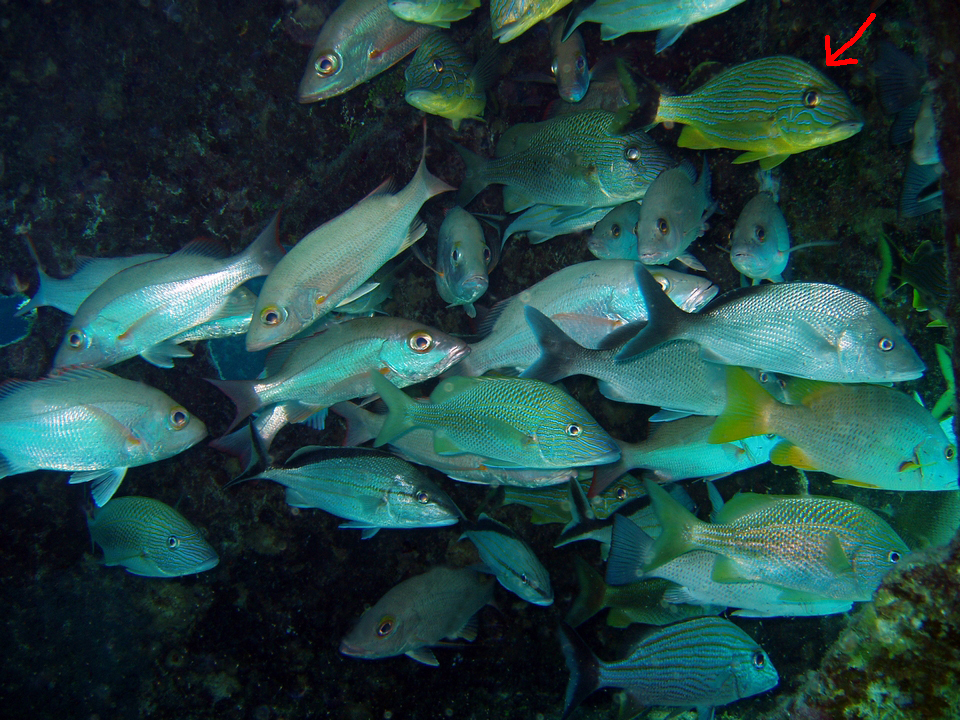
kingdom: Animalia
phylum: Chordata
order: Perciformes
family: Haemulidae
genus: Haemulon
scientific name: Haemulon sciurus
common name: Bluestriped grunt
